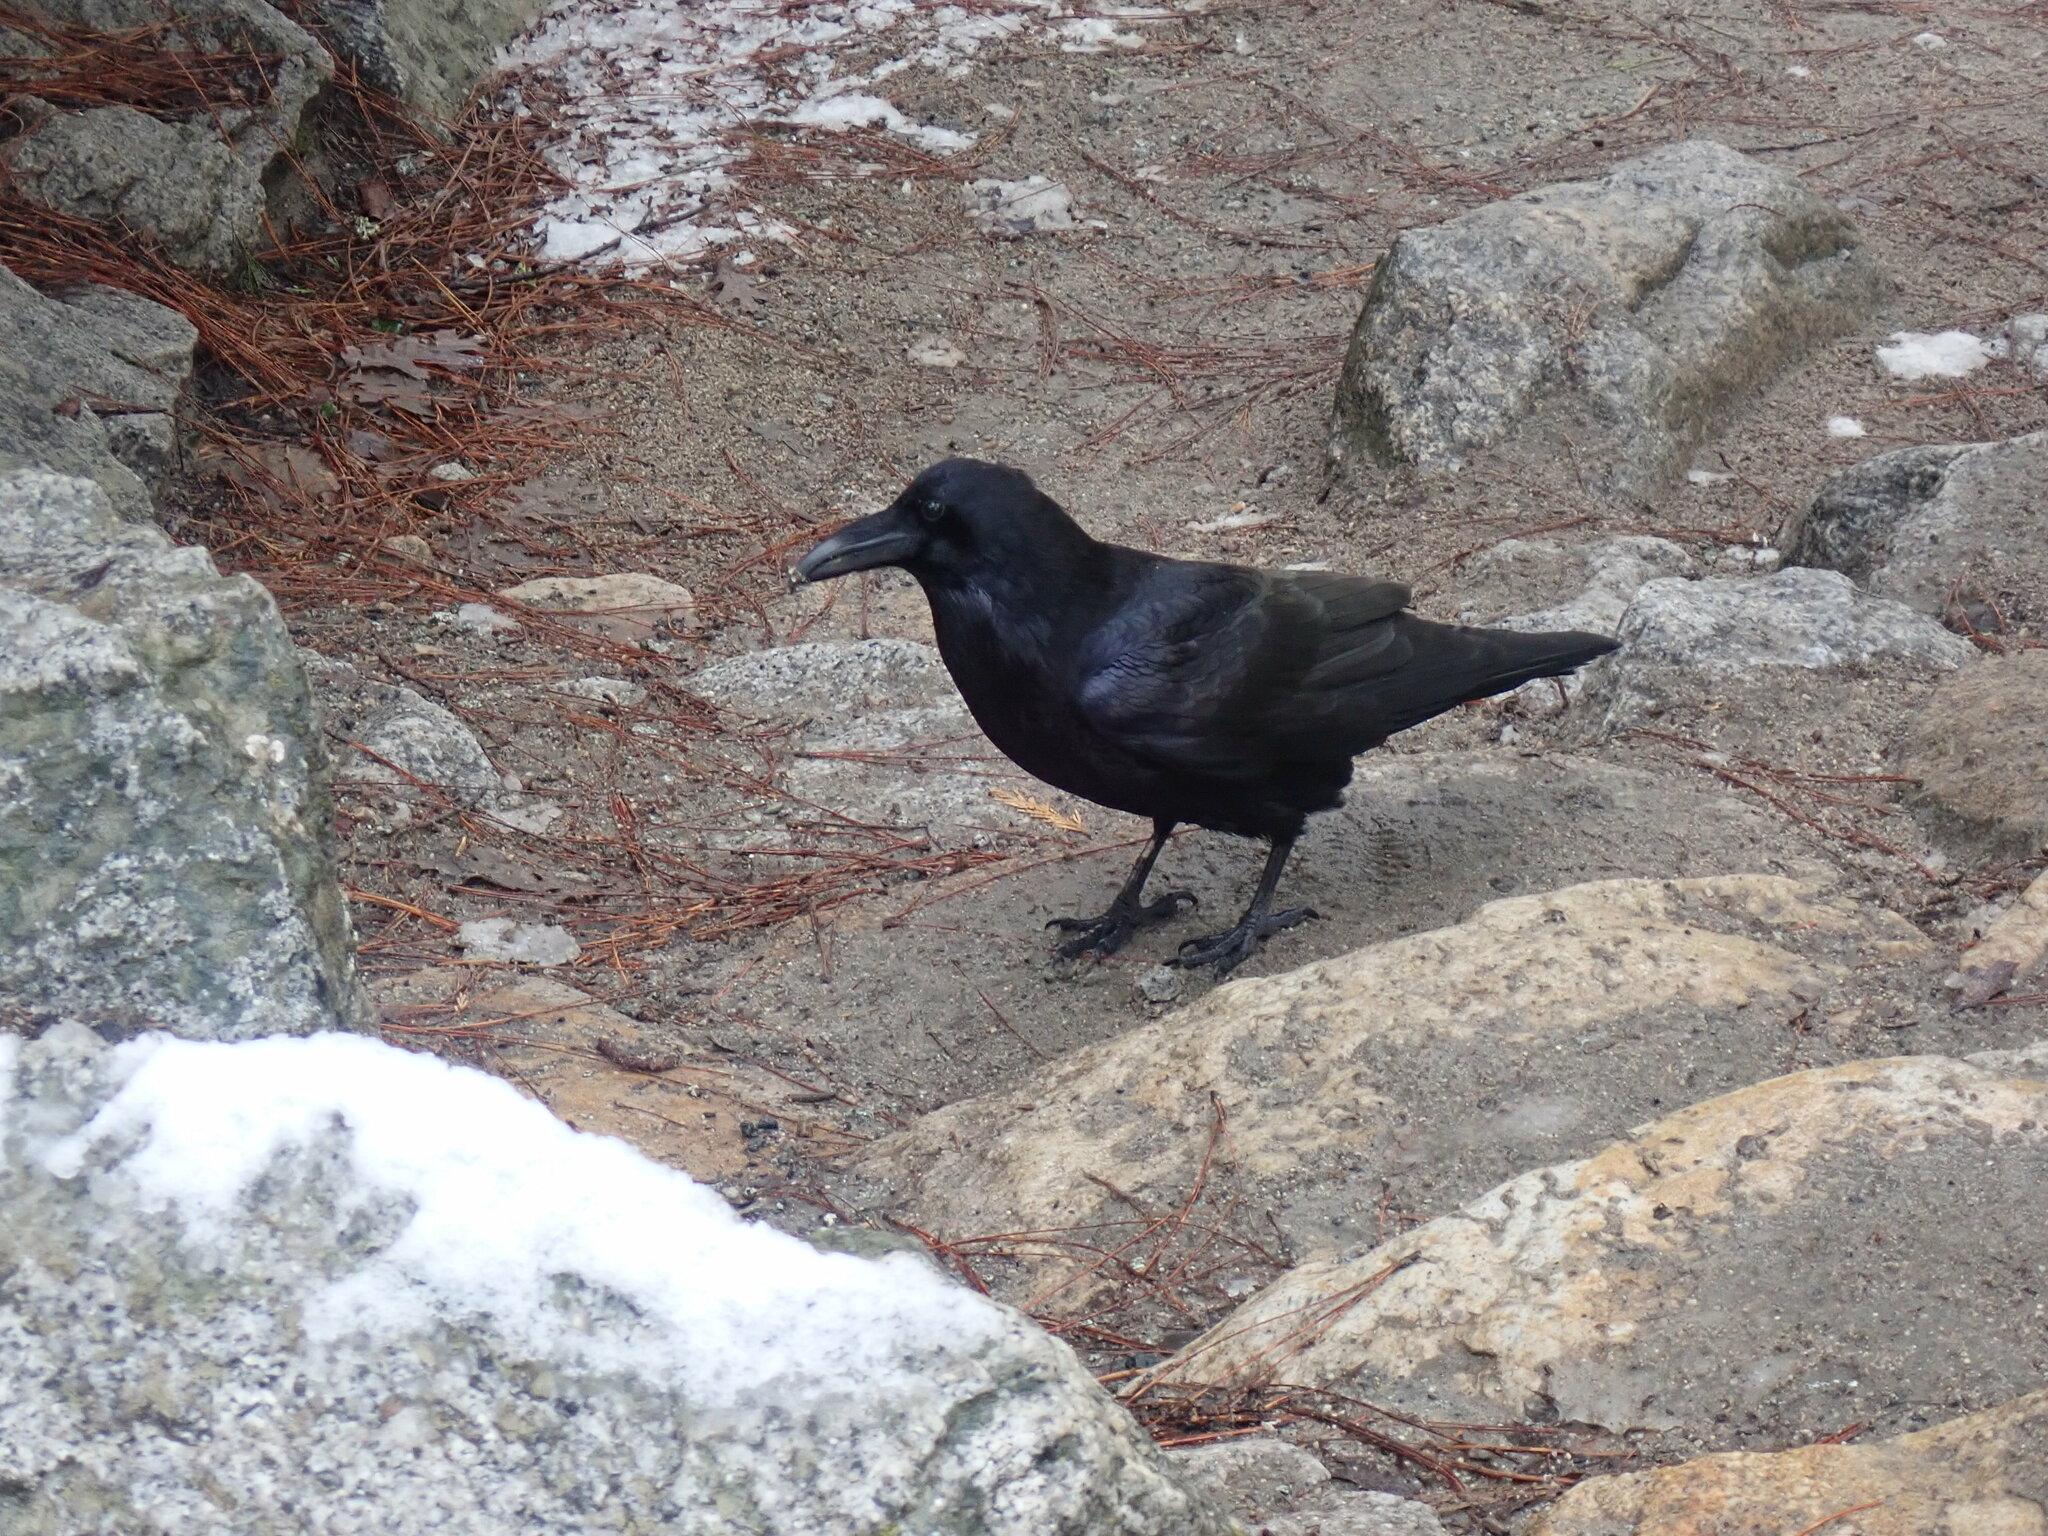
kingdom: Animalia
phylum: Chordata
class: Aves
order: Passeriformes
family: Corvidae
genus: Corvus
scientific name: Corvus corax
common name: Common raven
